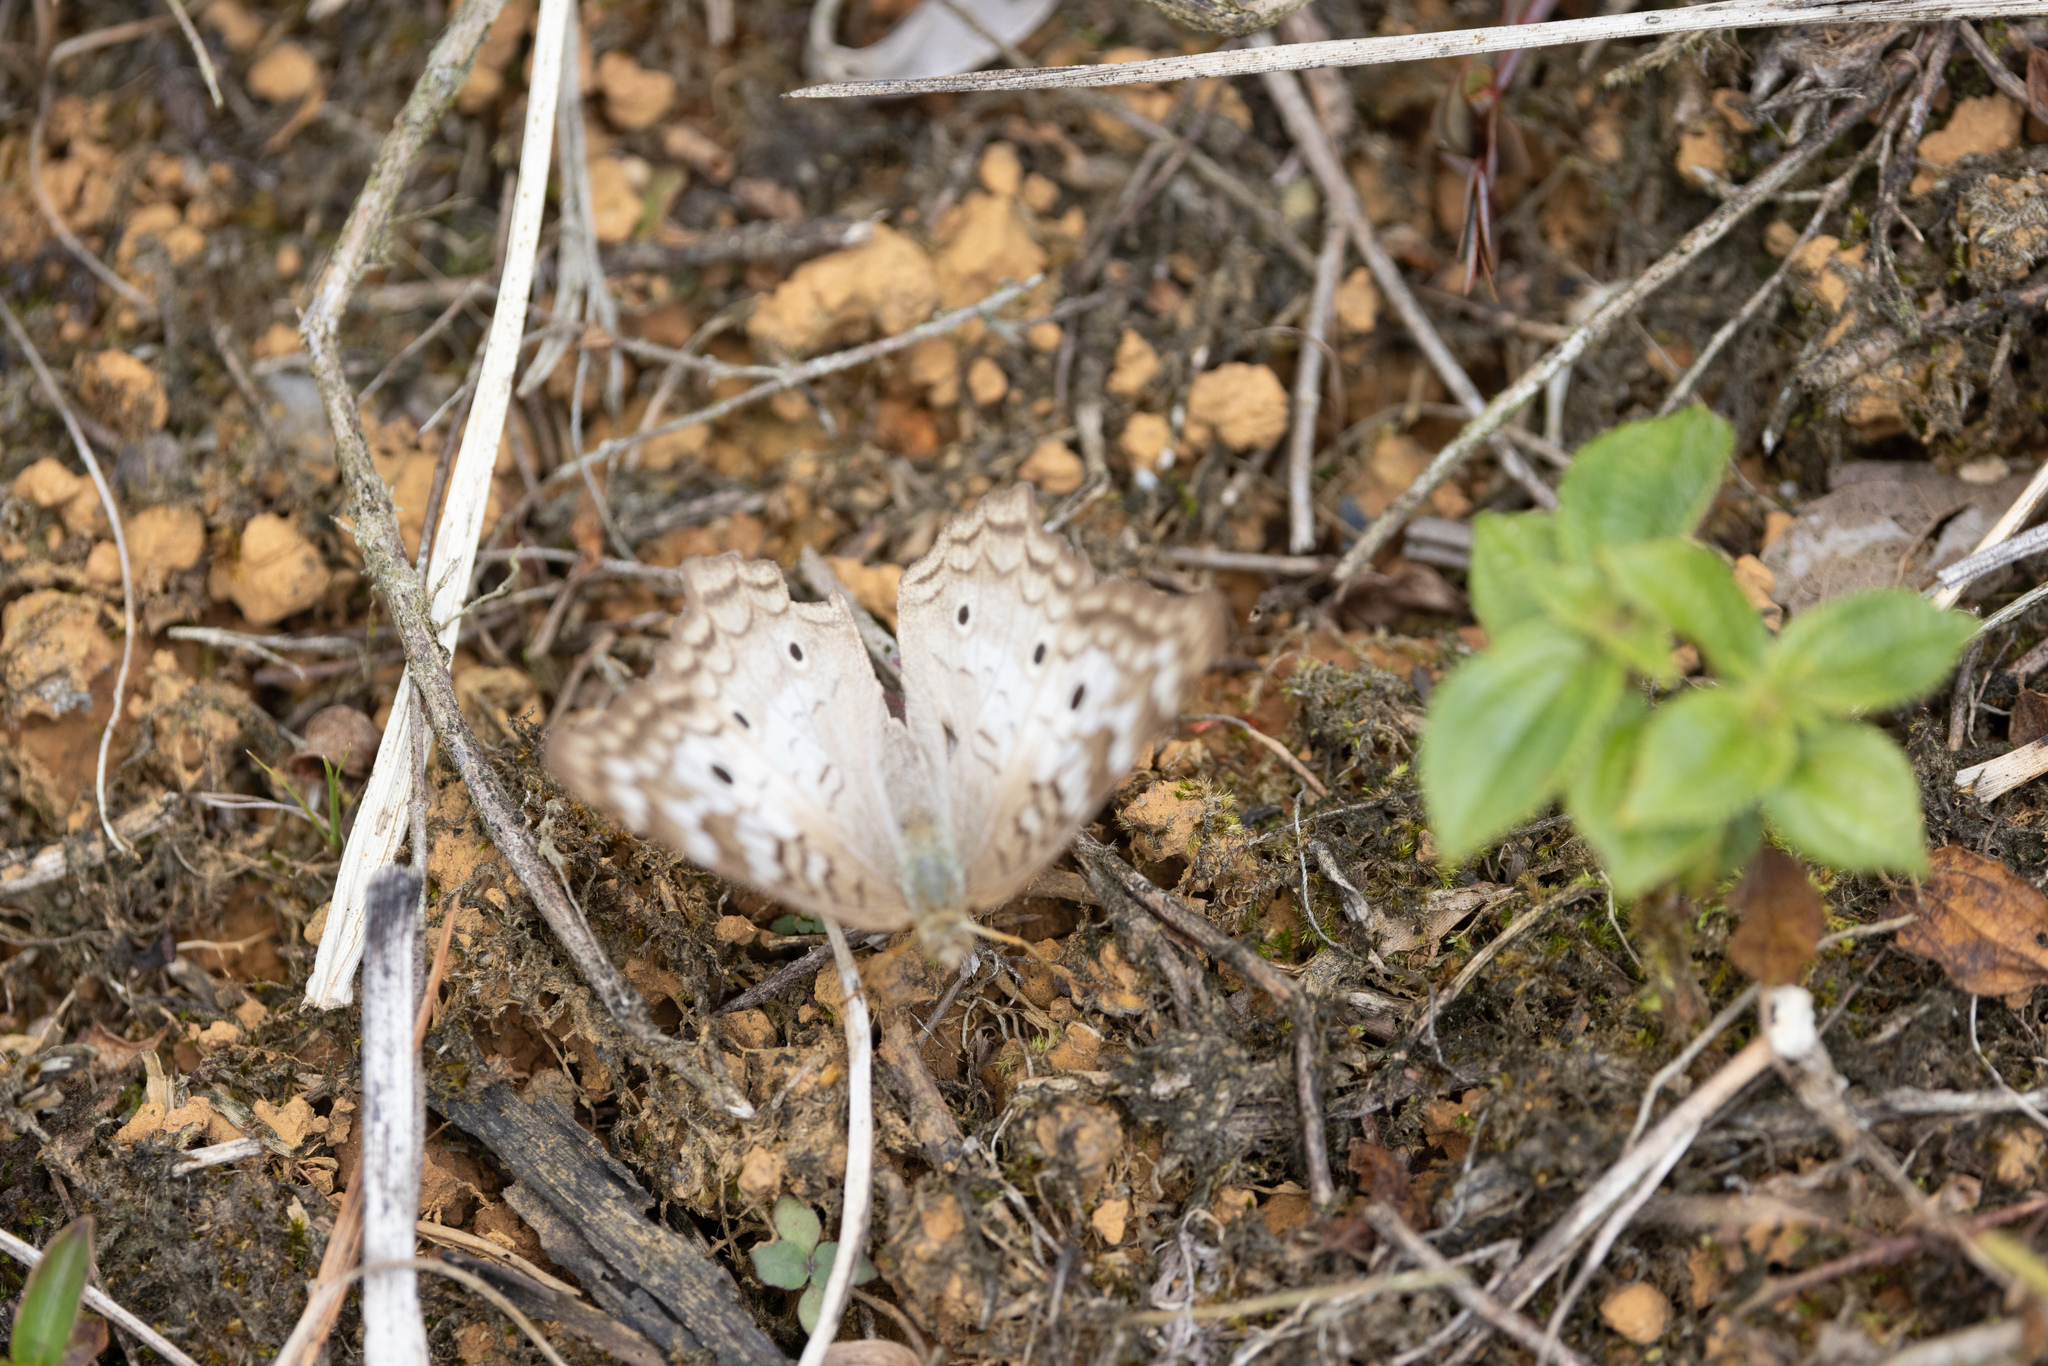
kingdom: Animalia
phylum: Arthropoda
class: Insecta
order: Lepidoptera
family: Nymphalidae
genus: Anartia
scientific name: Anartia jatrophae
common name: White peacock
